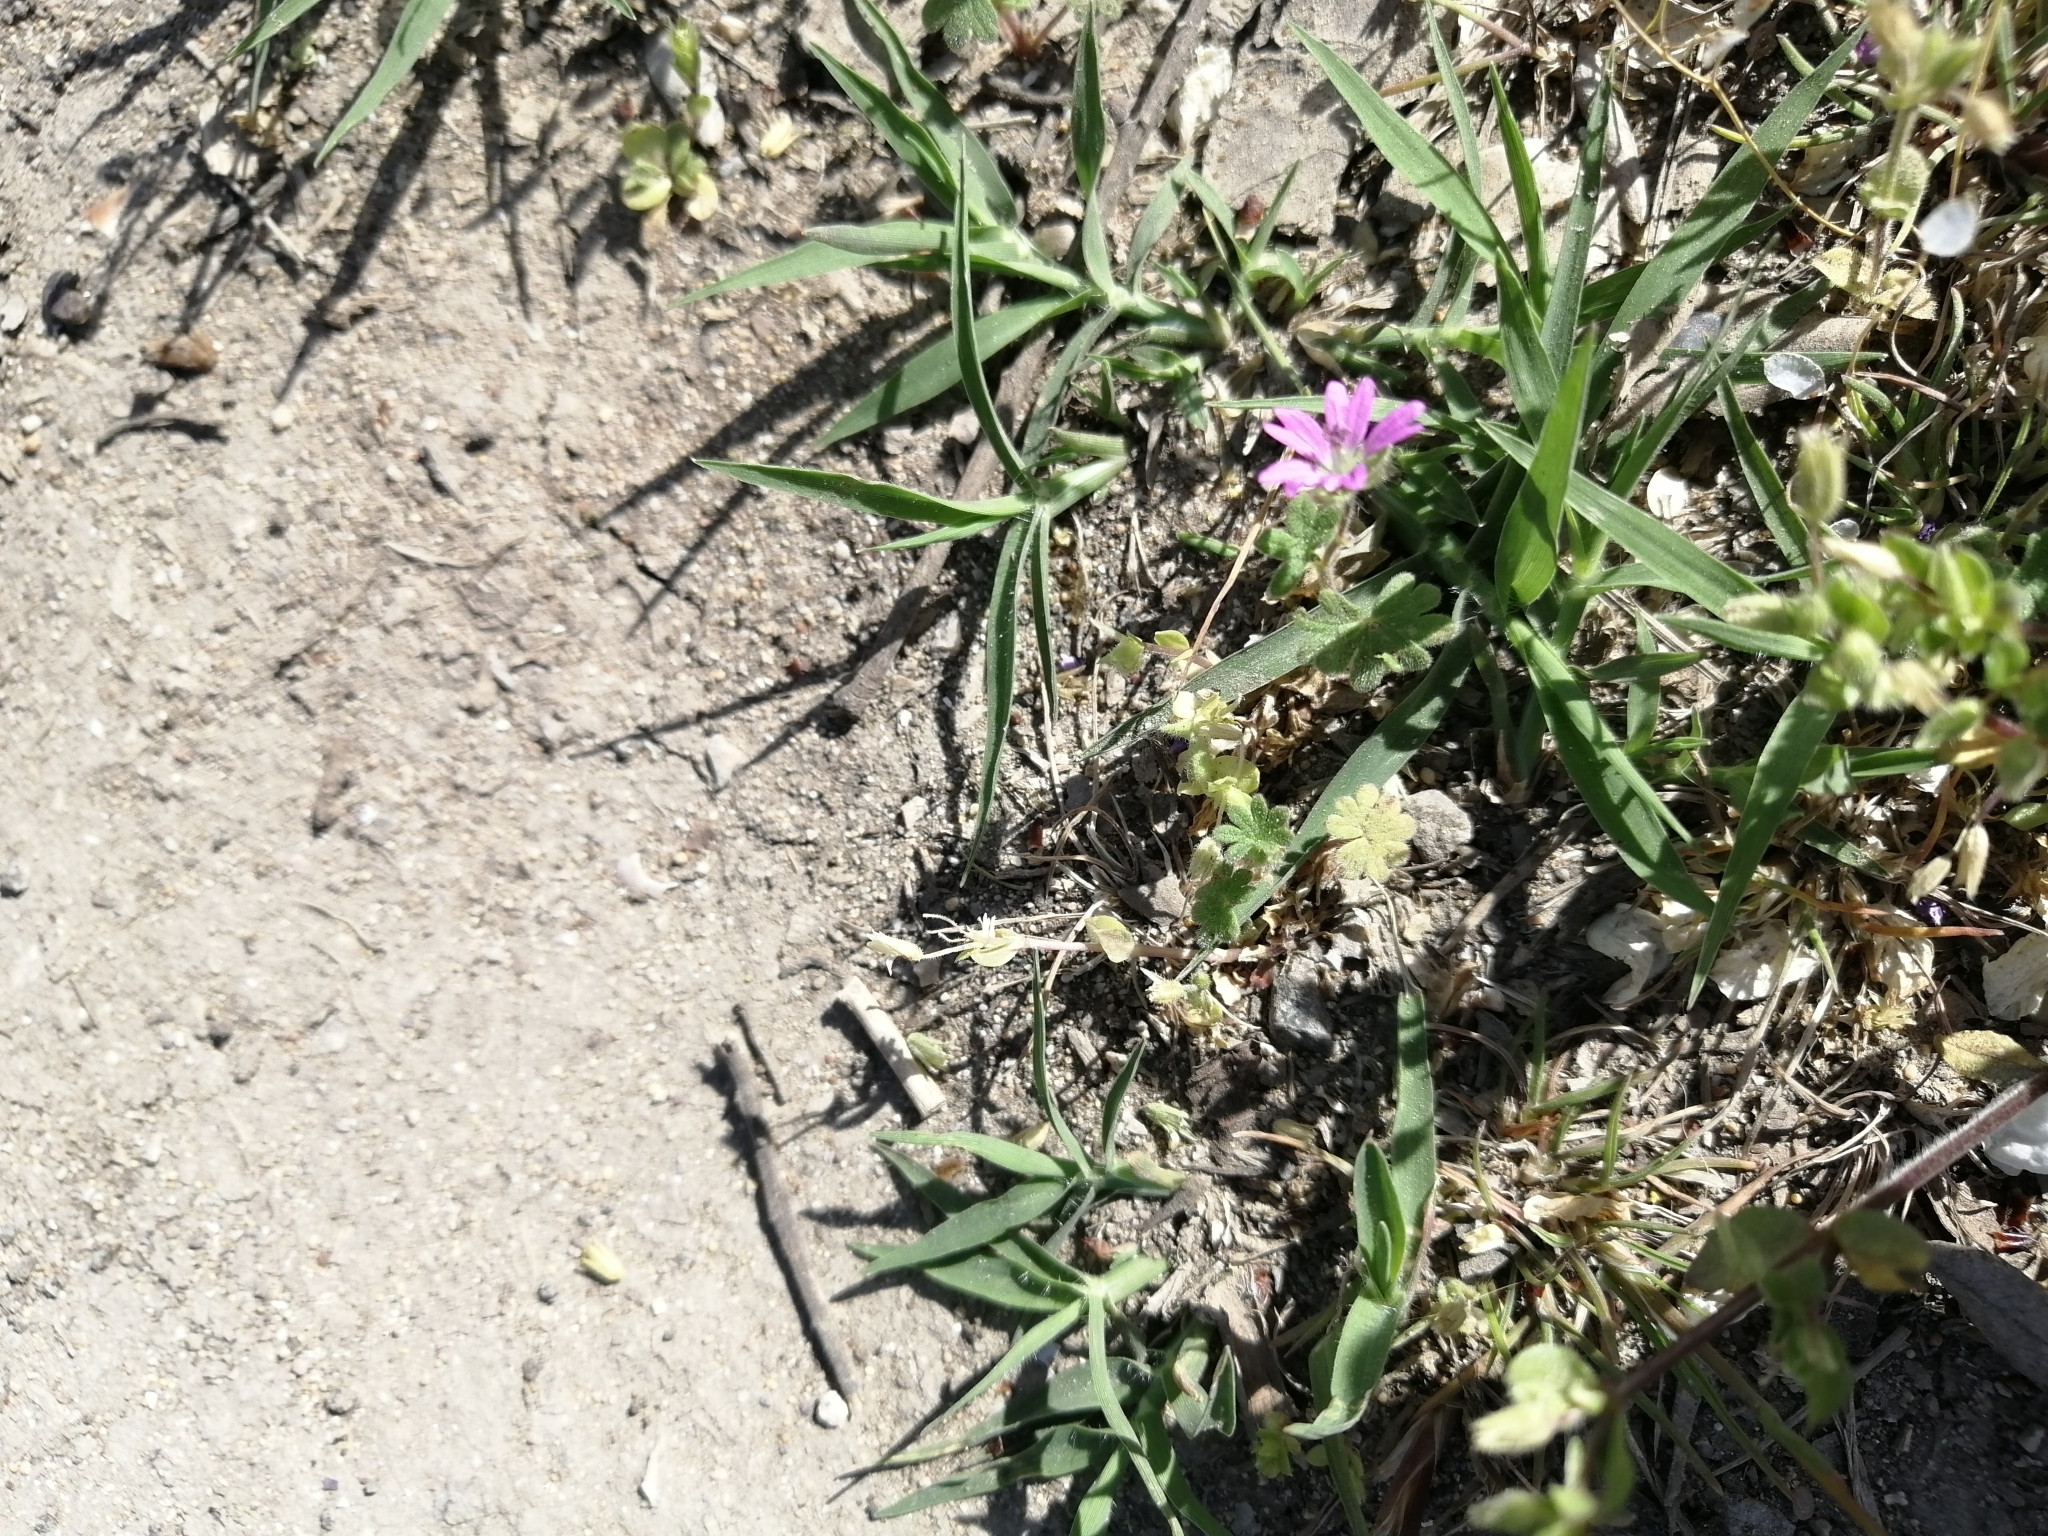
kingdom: Plantae
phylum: Tracheophyta
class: Magnoliopsida
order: Geraniales
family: Geraniaceae
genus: Geranium
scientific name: Geranium molle
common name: Dove's-foot crane's-bill
